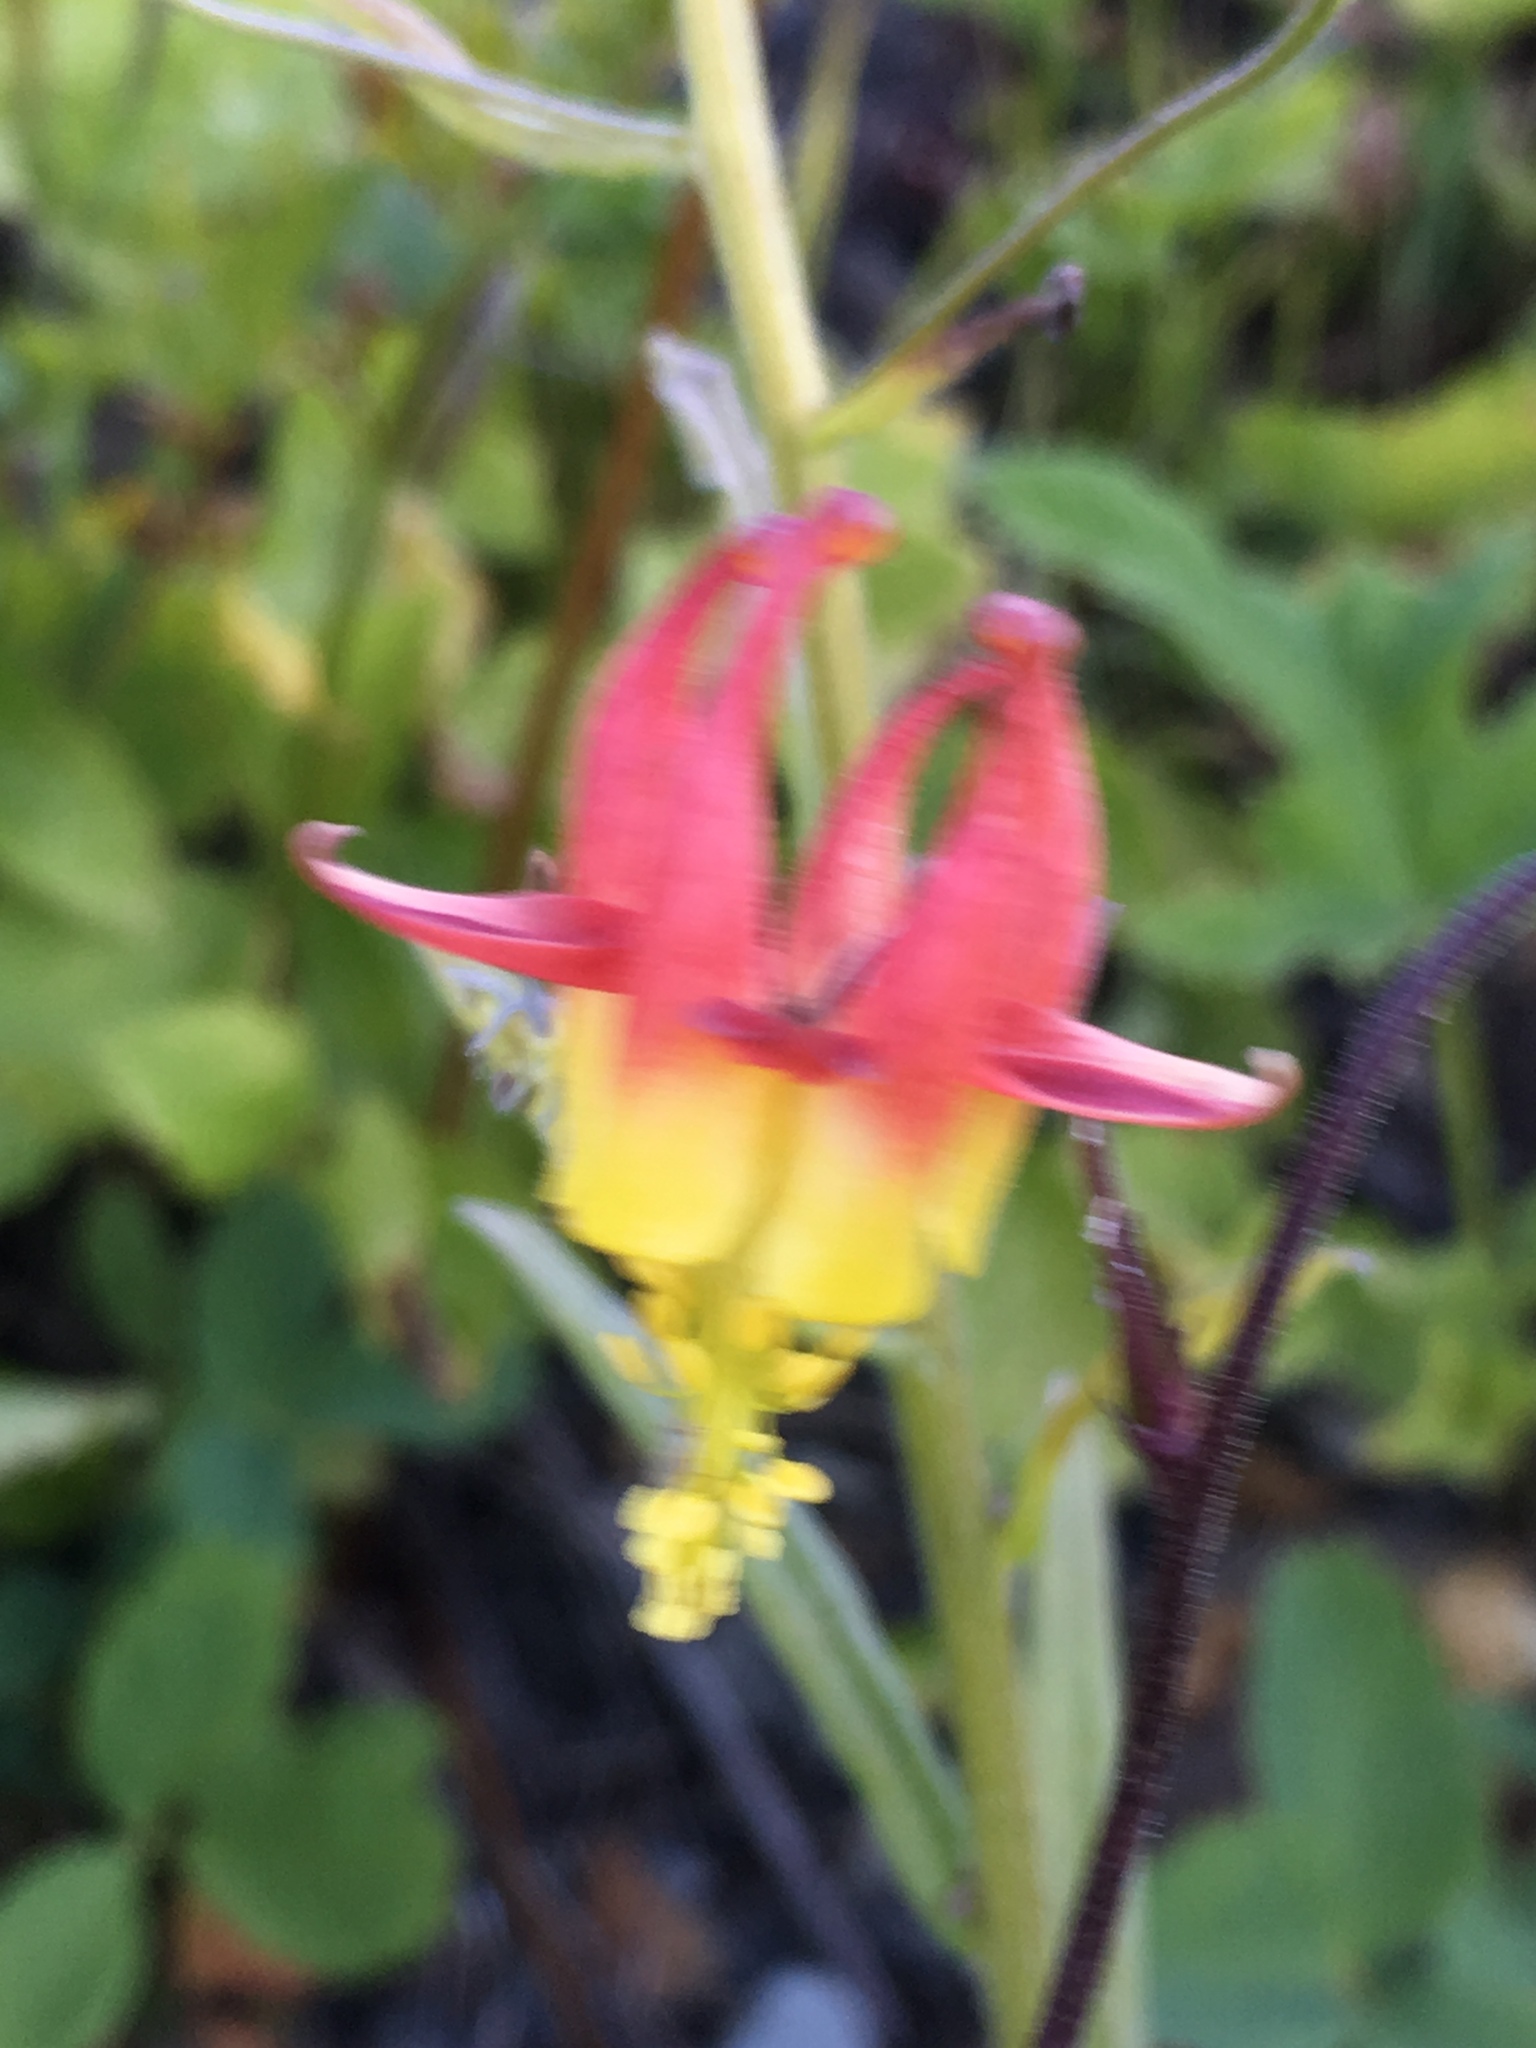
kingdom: Plantae
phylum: Tracheophyta
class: Magnoliopsida
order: Ranunculales
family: Ranunculaceae
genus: Aquilegia
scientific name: Aquilegia formosa
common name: Sitka columbine
